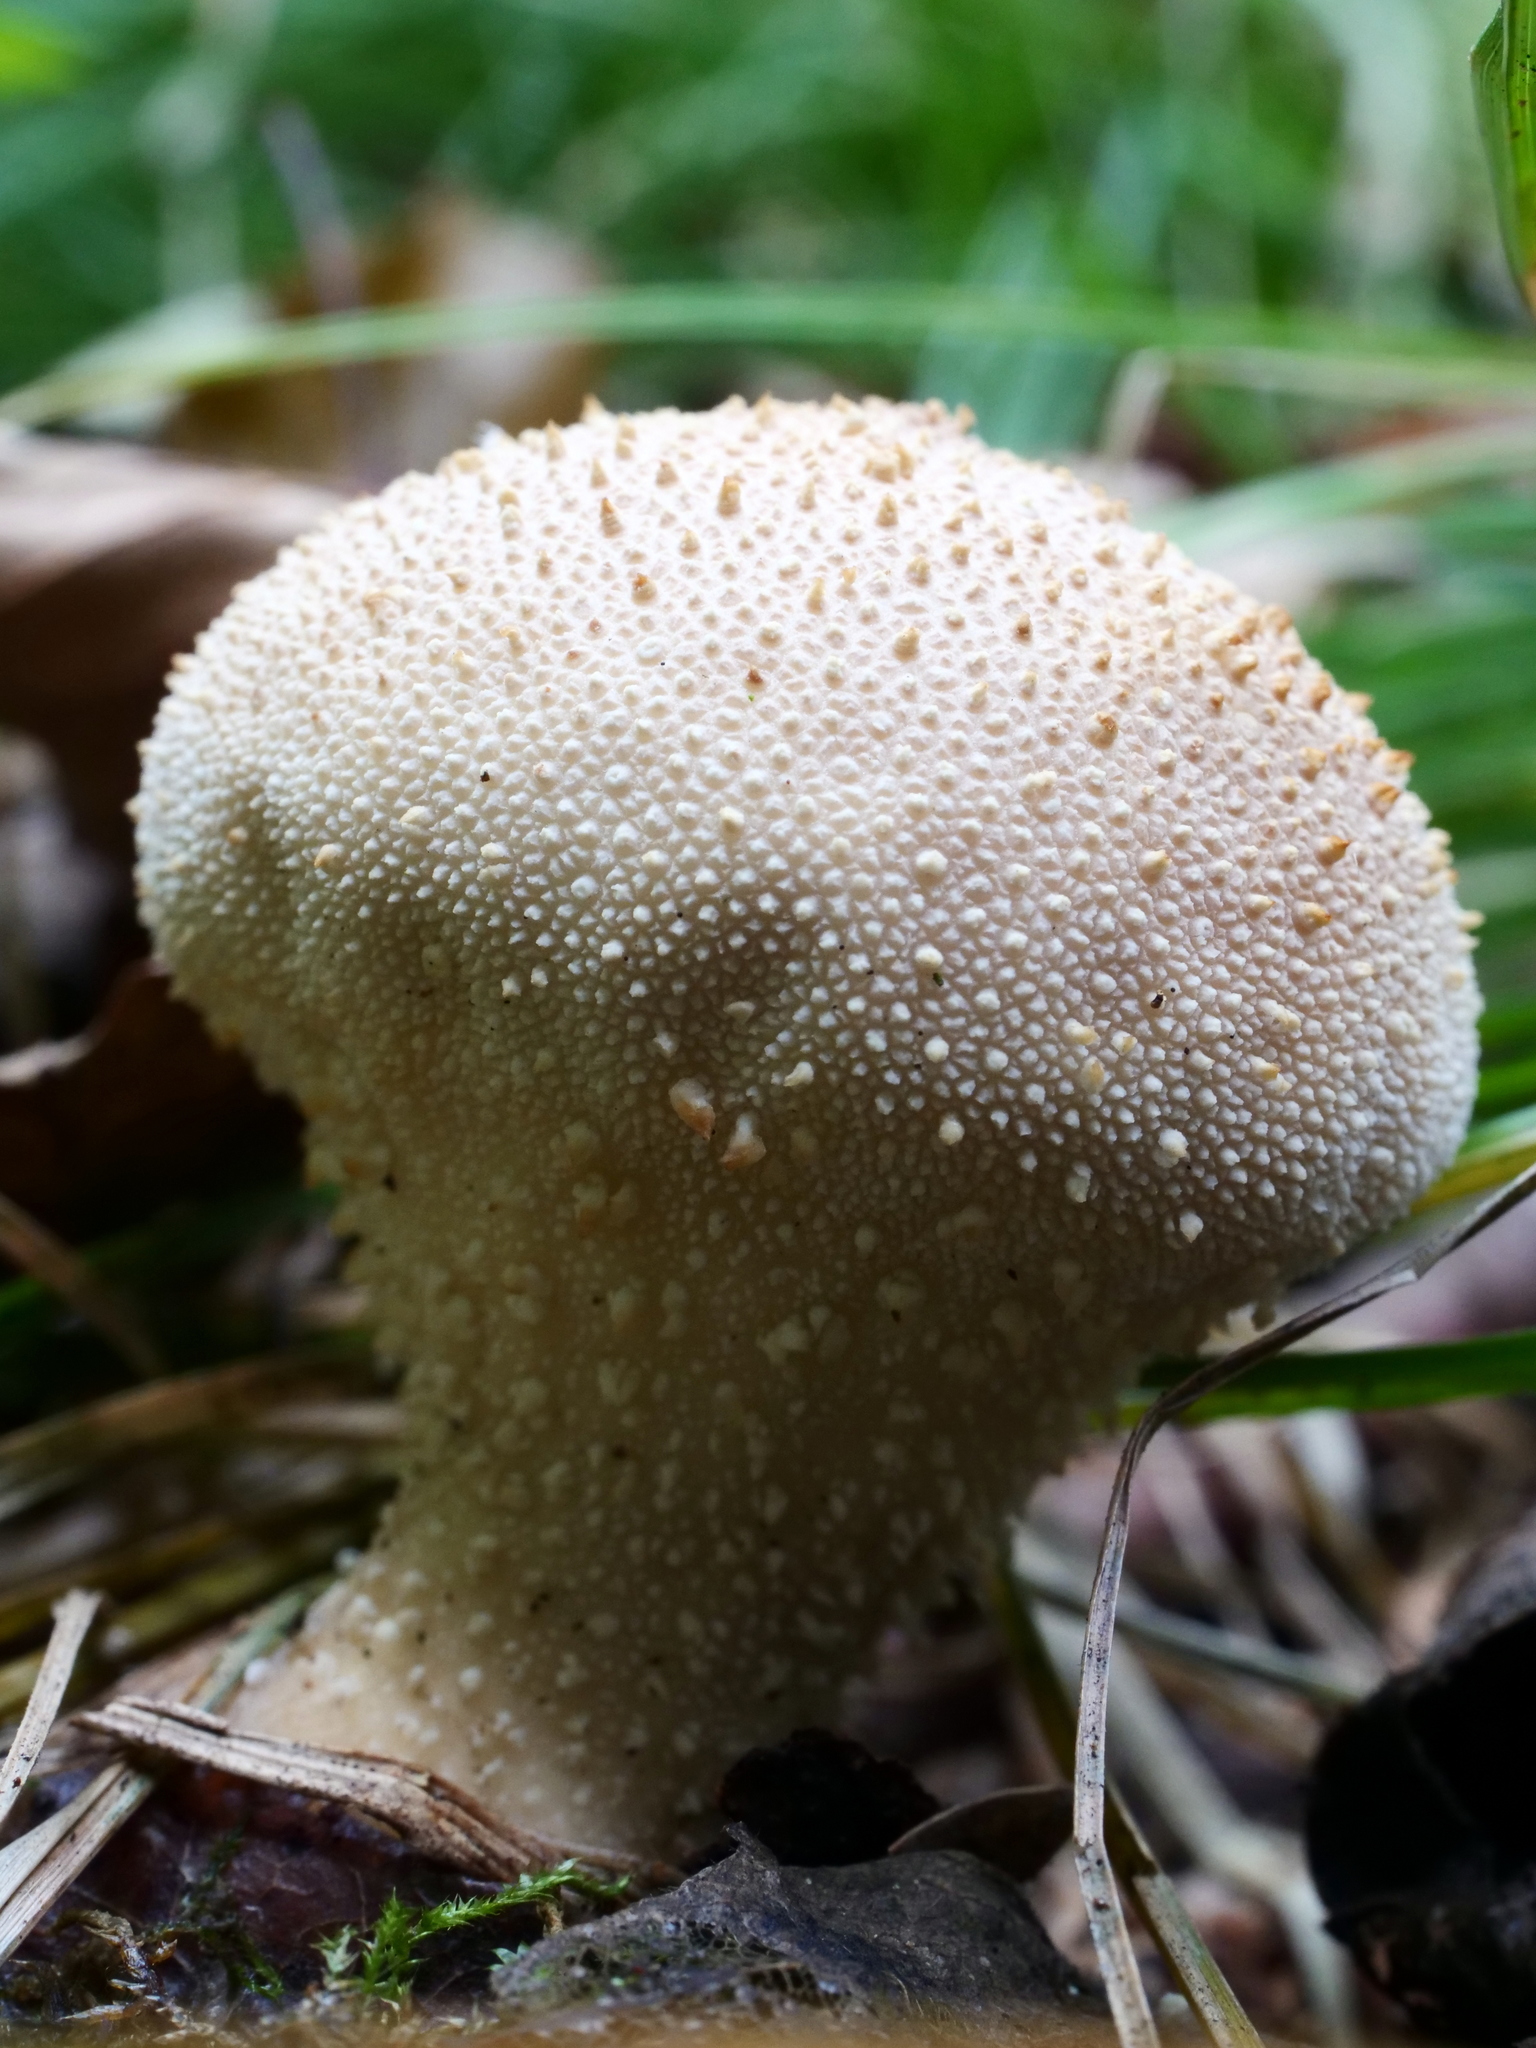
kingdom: Fungi
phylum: Basidiomycota
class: Agaricomycetes
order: Agaricales
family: Lycoperdaceae
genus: Lycoperdon
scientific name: Lycoperdon perlatum
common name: Common puffball
